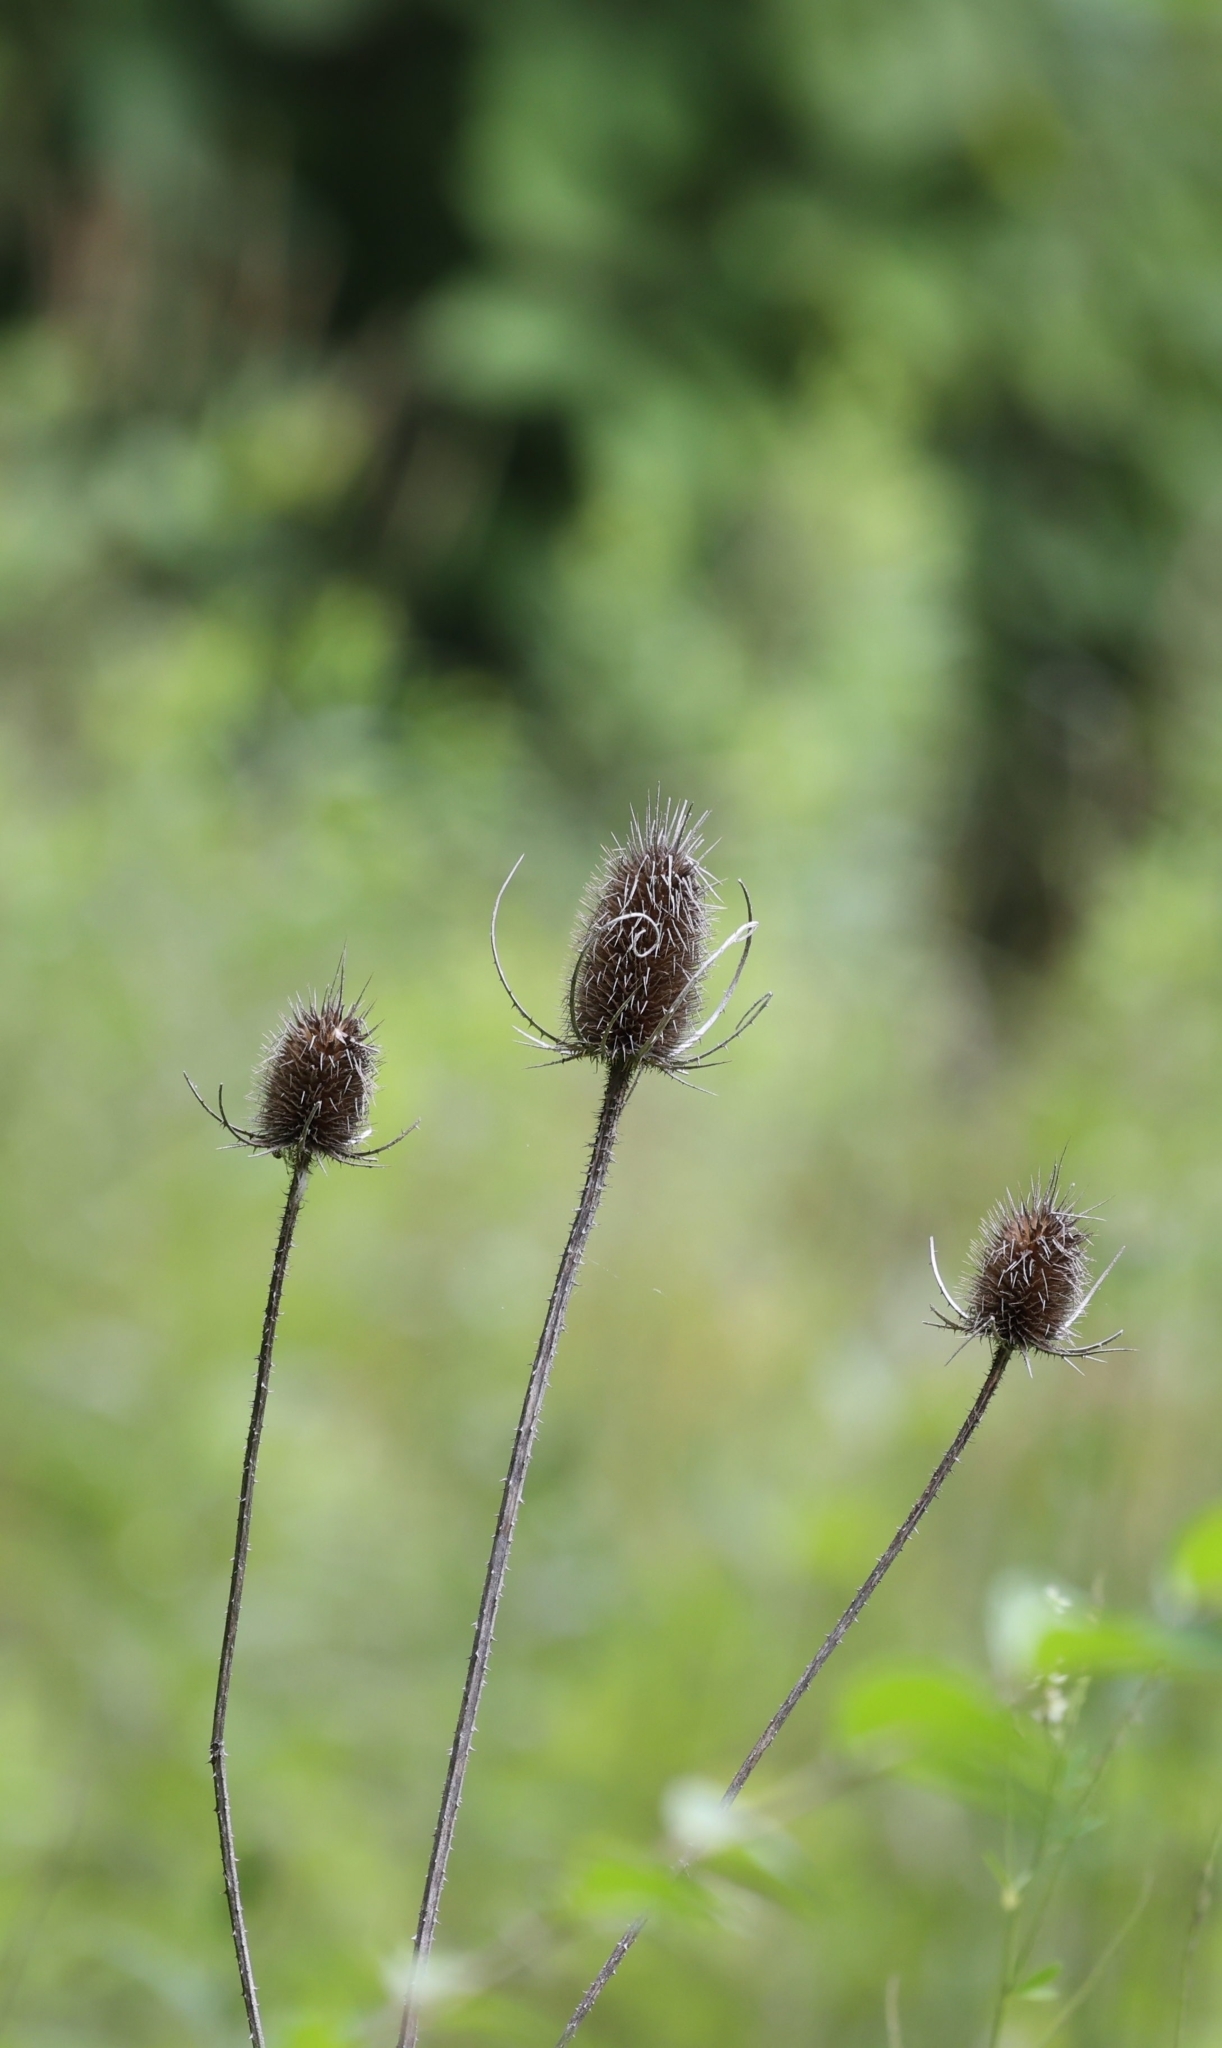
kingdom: Plantae
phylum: Tracheophyta
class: Magnoliopsida
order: Dipsacales
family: Caprifoliaceae
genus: Dipsacus
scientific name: Dipsacus fullonum
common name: Teasel
